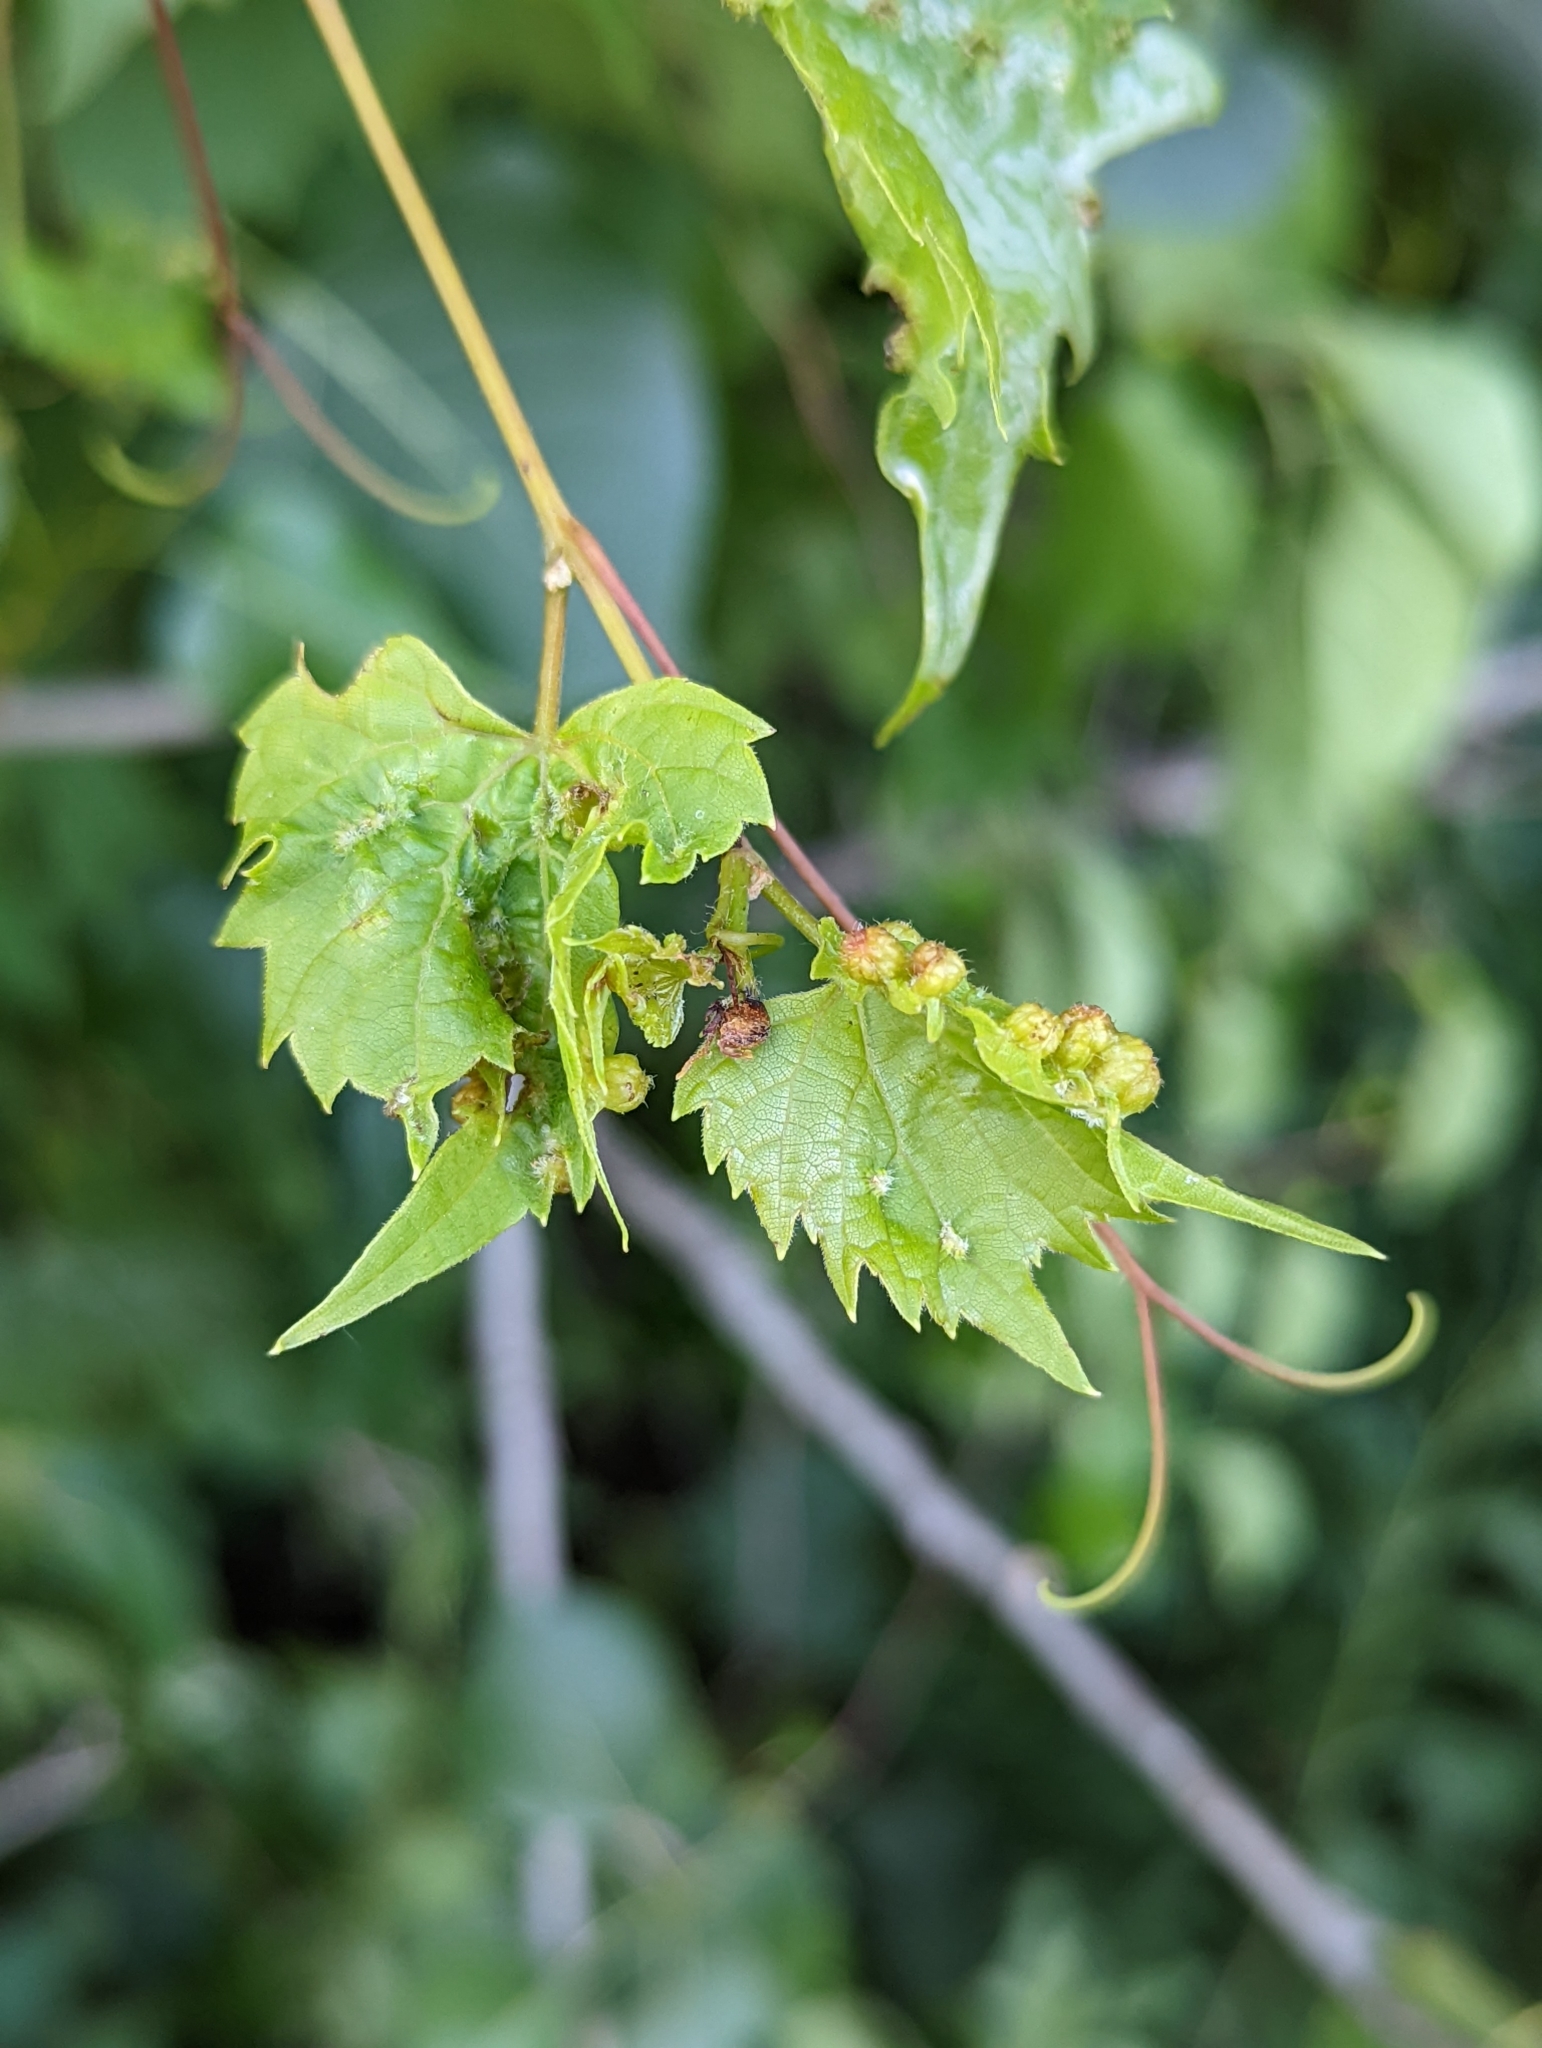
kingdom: Animalia
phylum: Arthropoda
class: Insecta
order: Hemiptera
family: Phylloxeridae
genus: Daktulosphaira
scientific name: Daktulosphaira vitifoliae
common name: Grape phylloxera
